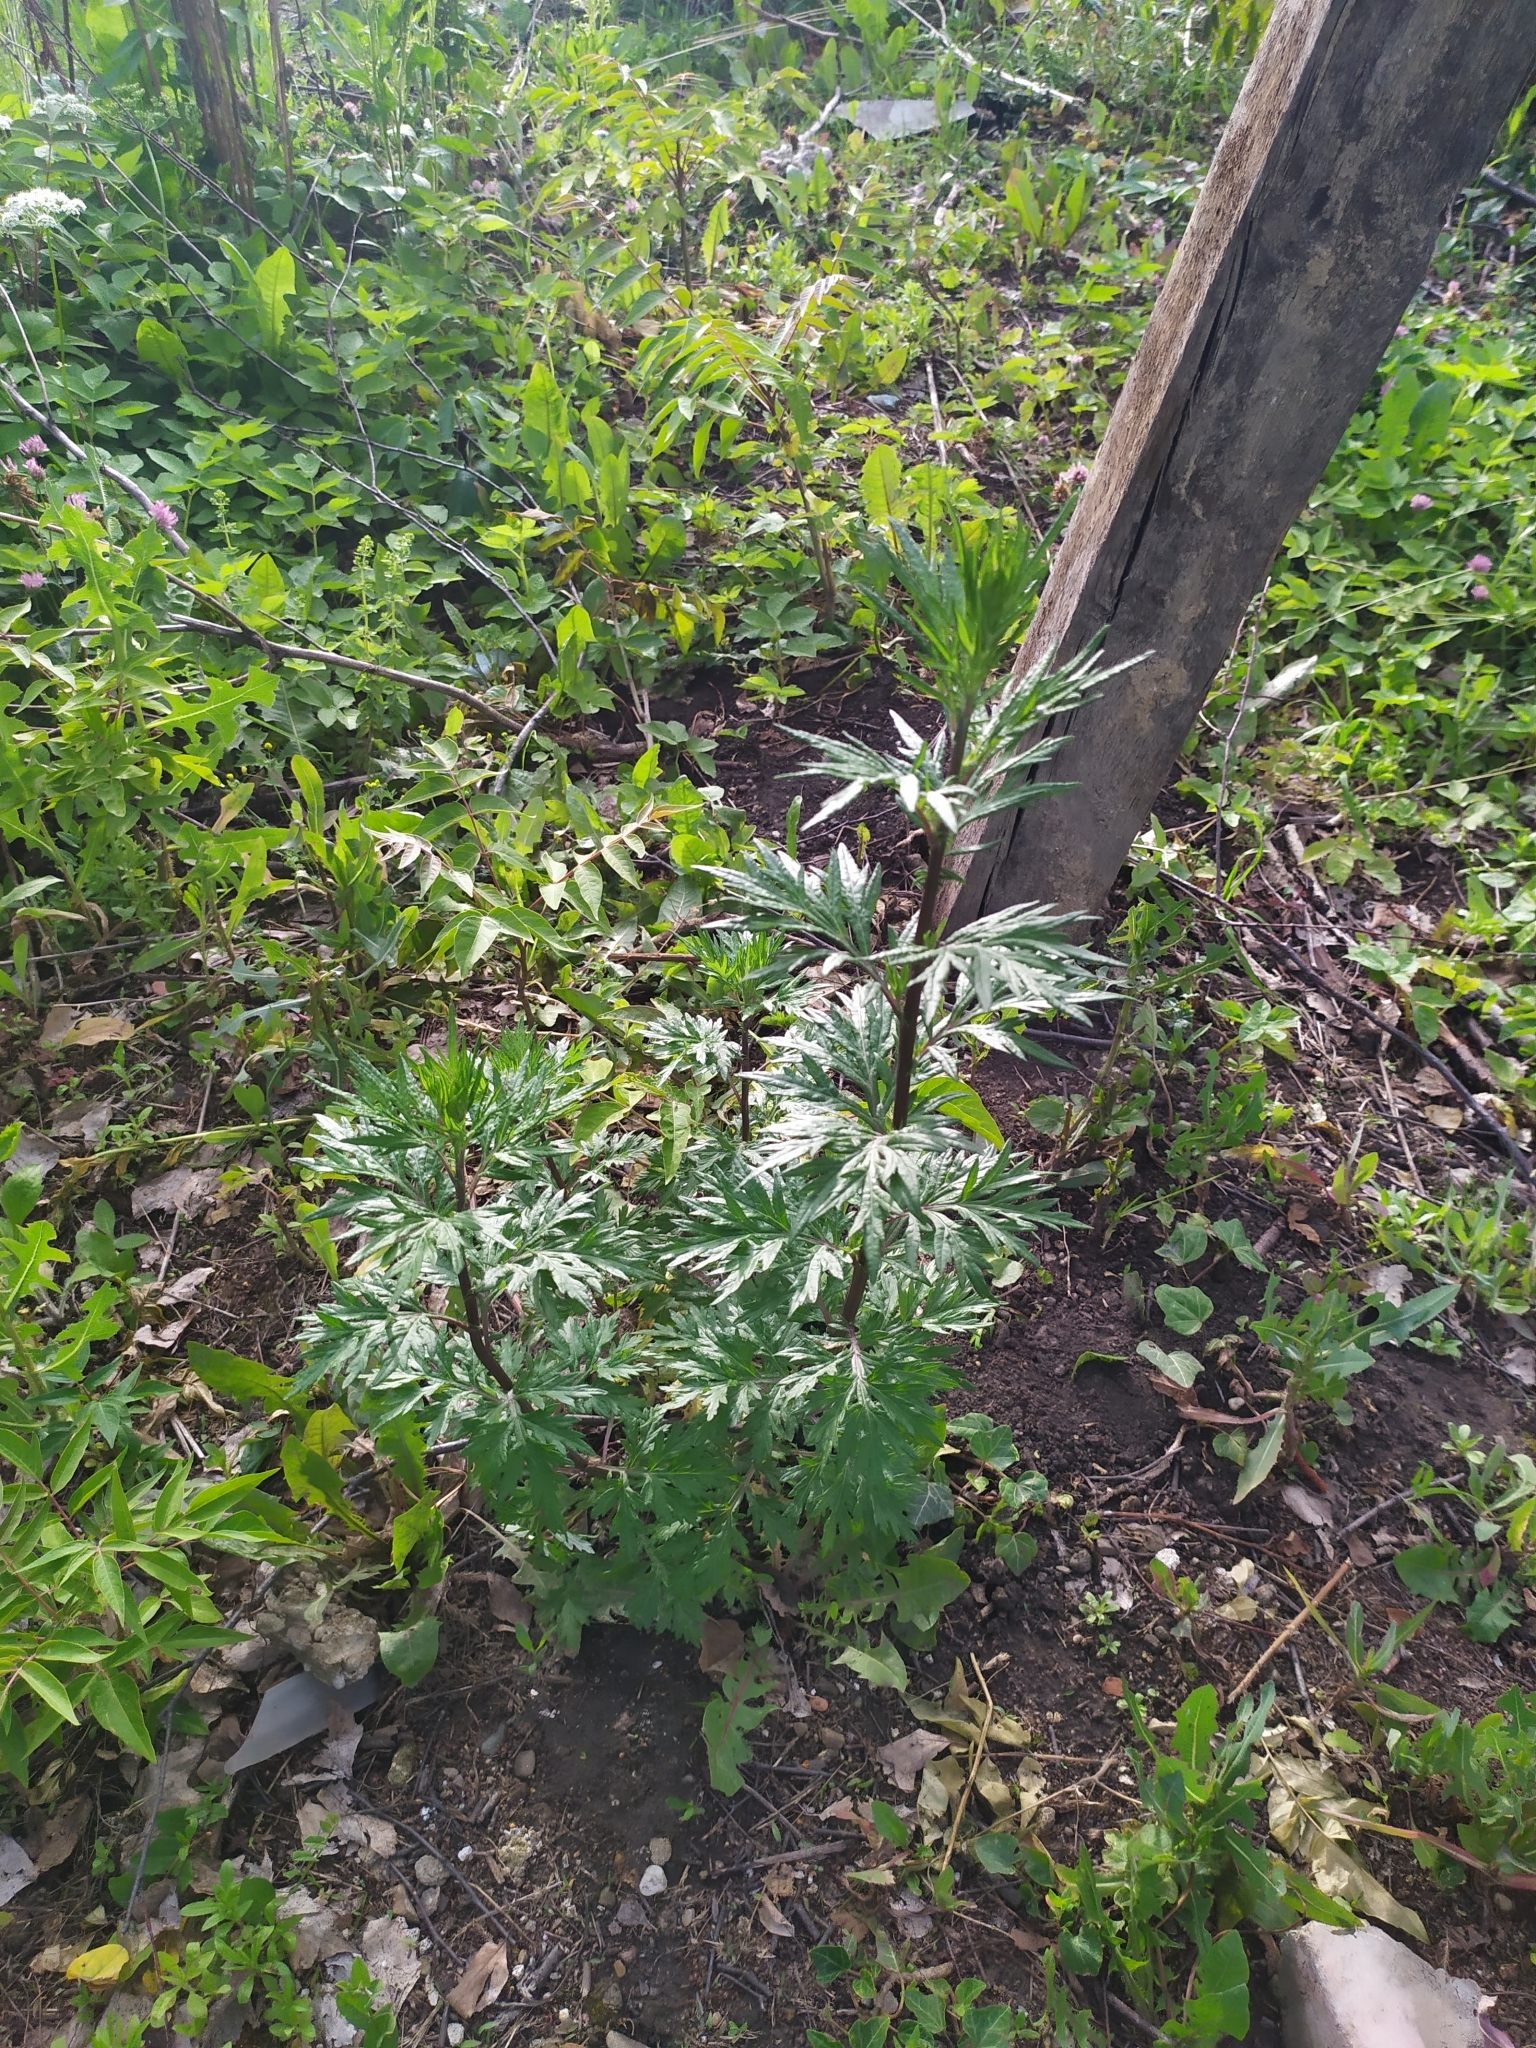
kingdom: Plantae
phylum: Tracheophyta
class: Magnoliopsida
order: Asterales
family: Asteraceae
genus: Artemisia
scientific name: Artemisia vulgaris
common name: Mugwort
